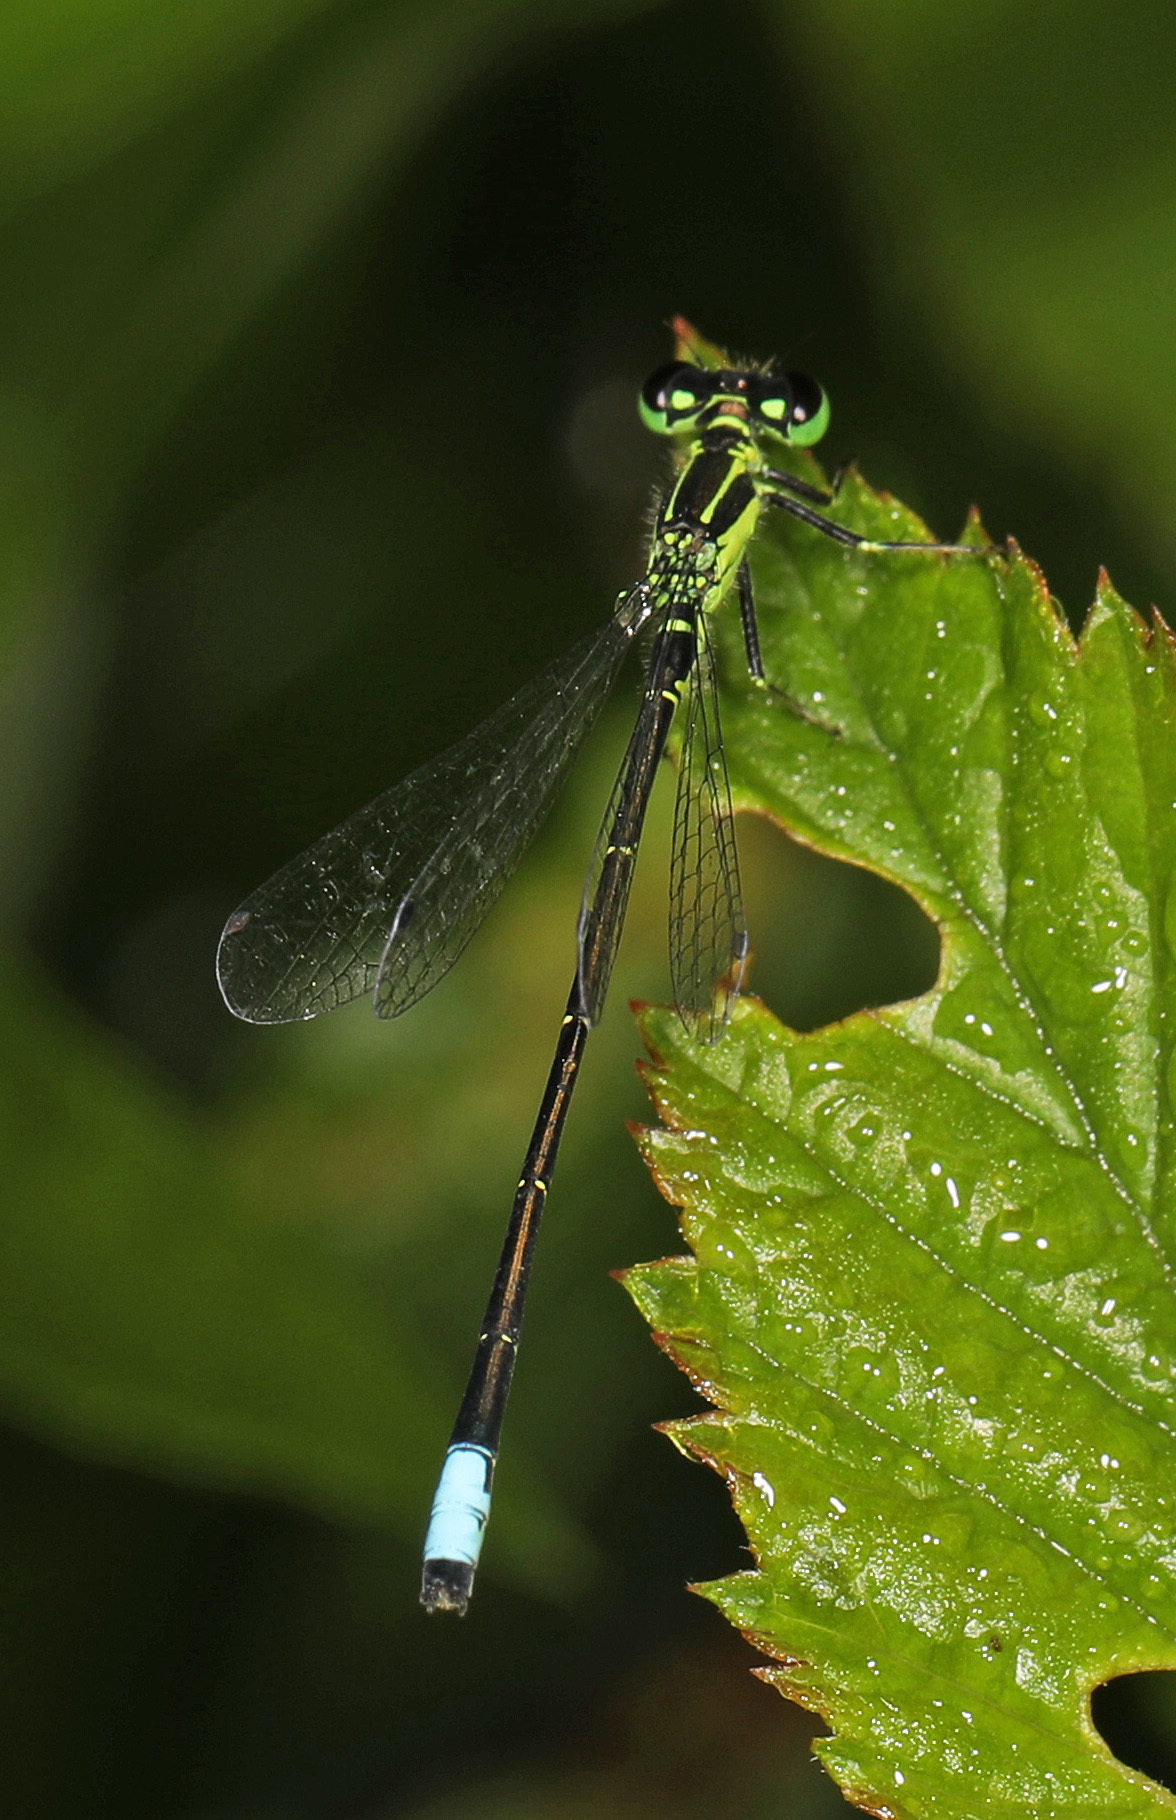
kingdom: Animalia
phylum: Arthropoda
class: Insecta
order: Odonata
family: Coenagrionidae
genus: Ischnura
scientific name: Ischnura verticalis
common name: Eastern forktail
